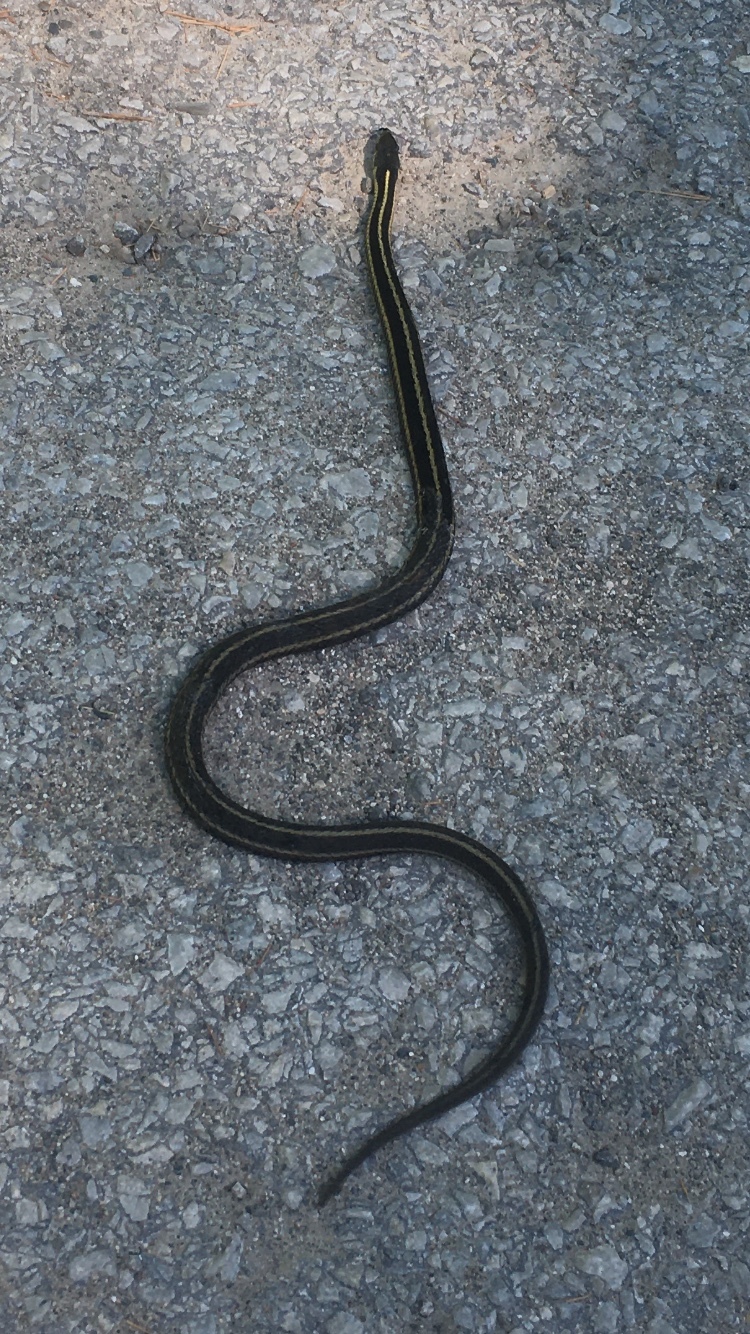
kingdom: Animalia
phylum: Chordata
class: Squamata
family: Colubridae
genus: Thamnophis
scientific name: Thamnophis sirtalis
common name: Common garter snake
